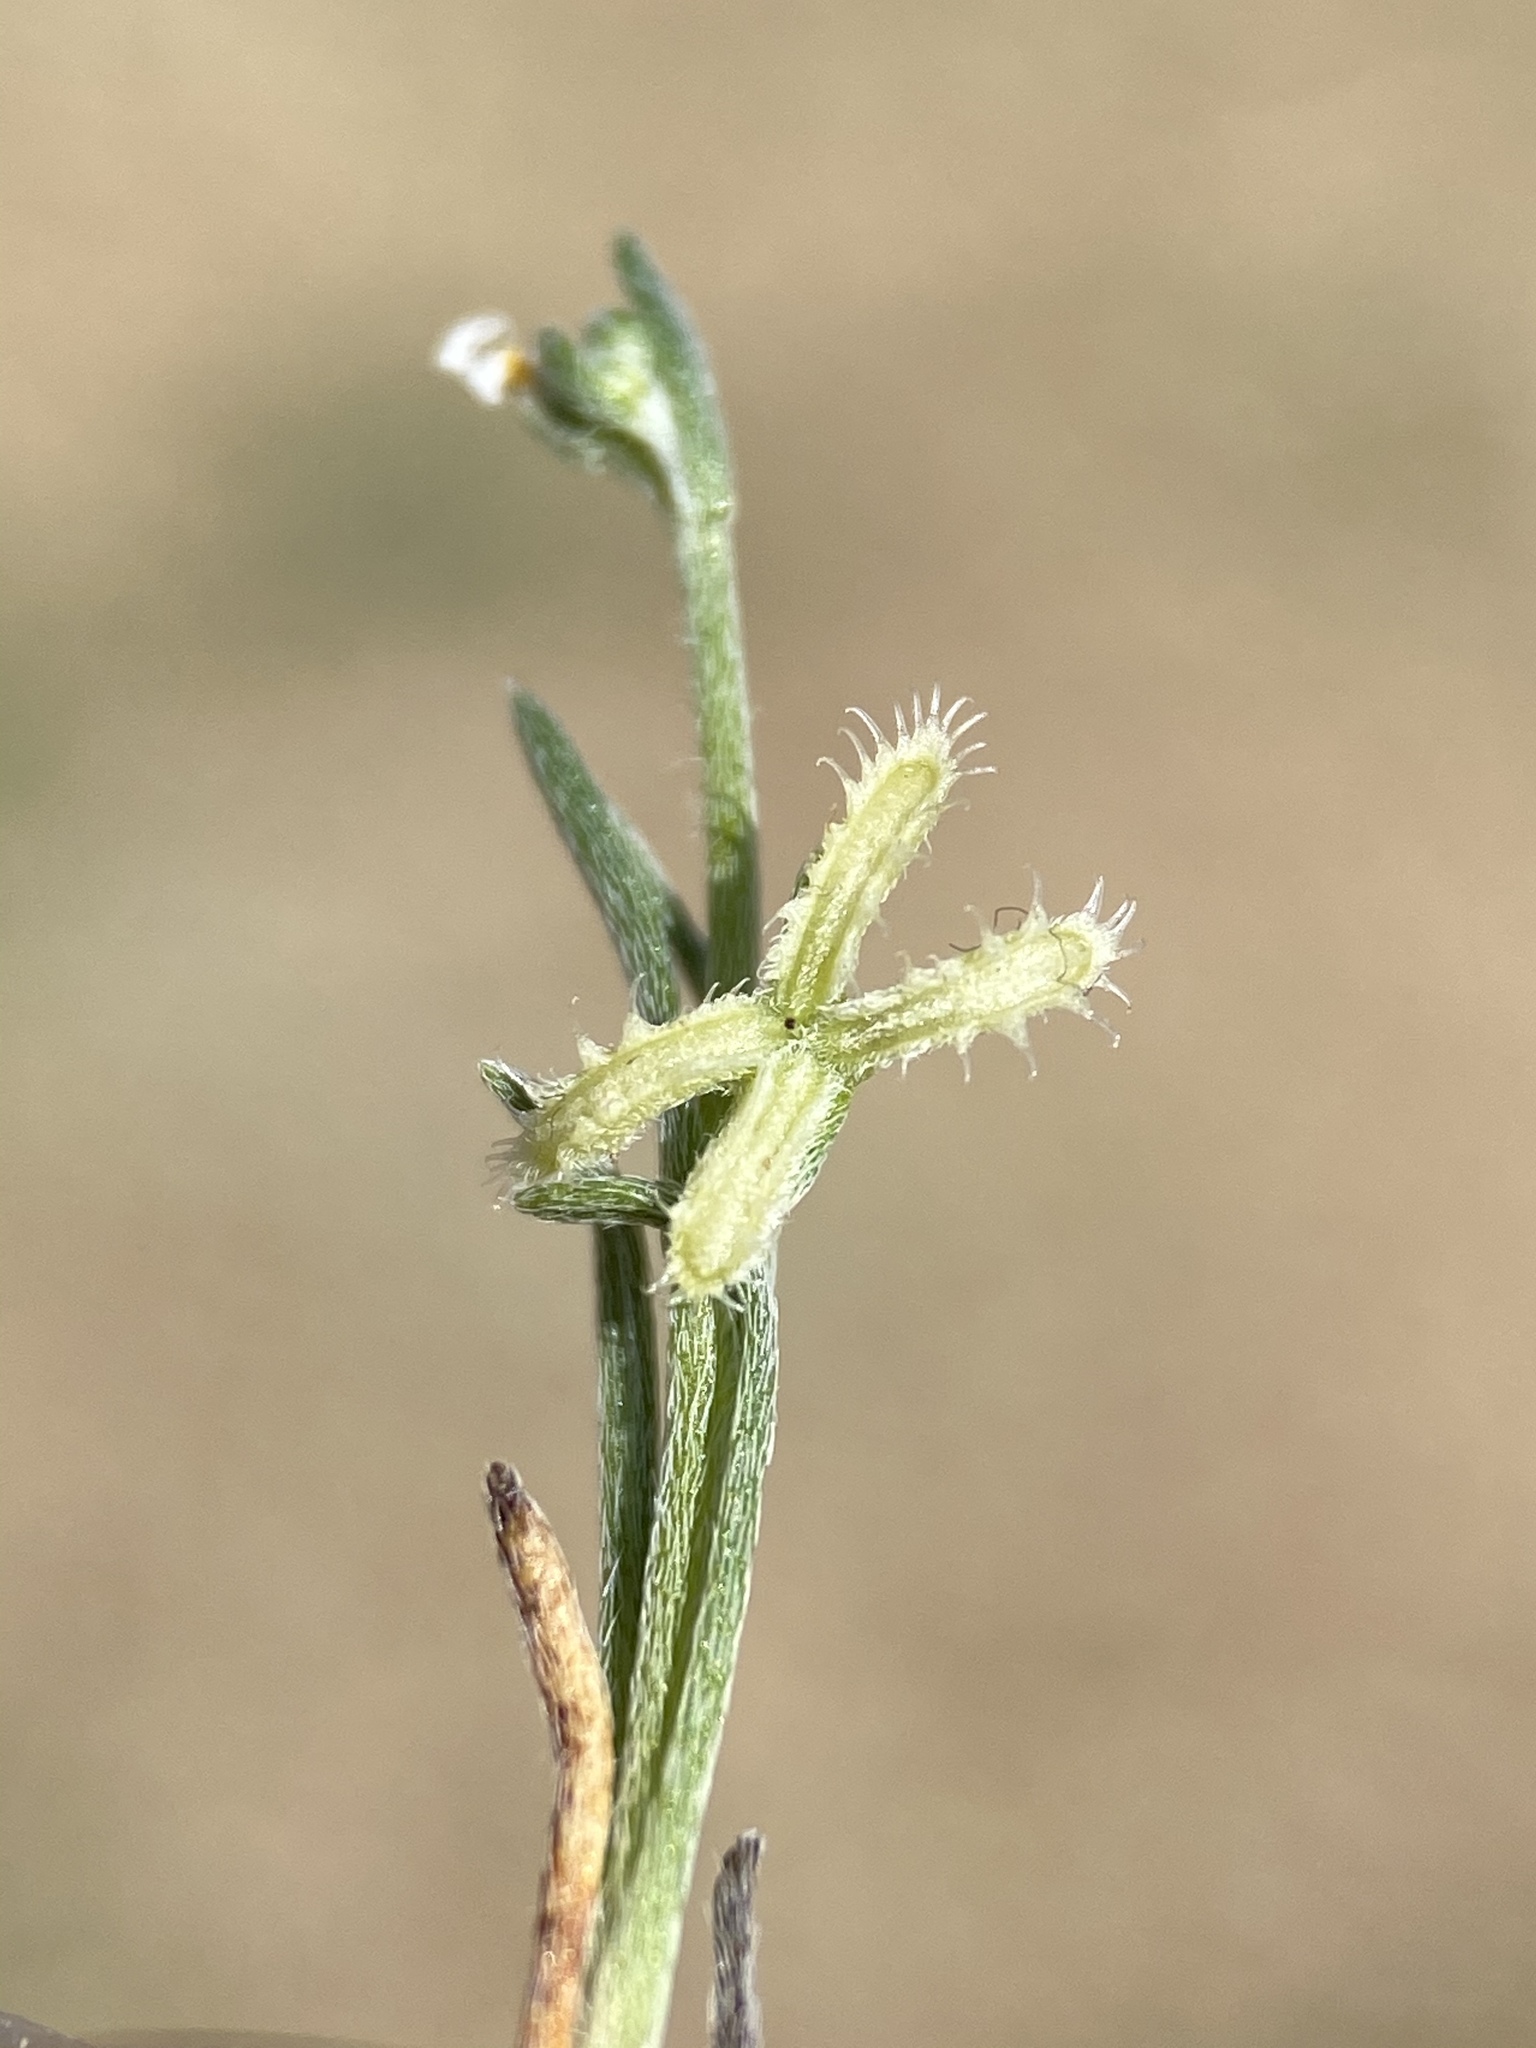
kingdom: Plantae
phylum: Tracheophyta
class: Magnoliopsida
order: Boraginales
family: Boraginaceae
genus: Pectocarya
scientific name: Pectocarya linearis
